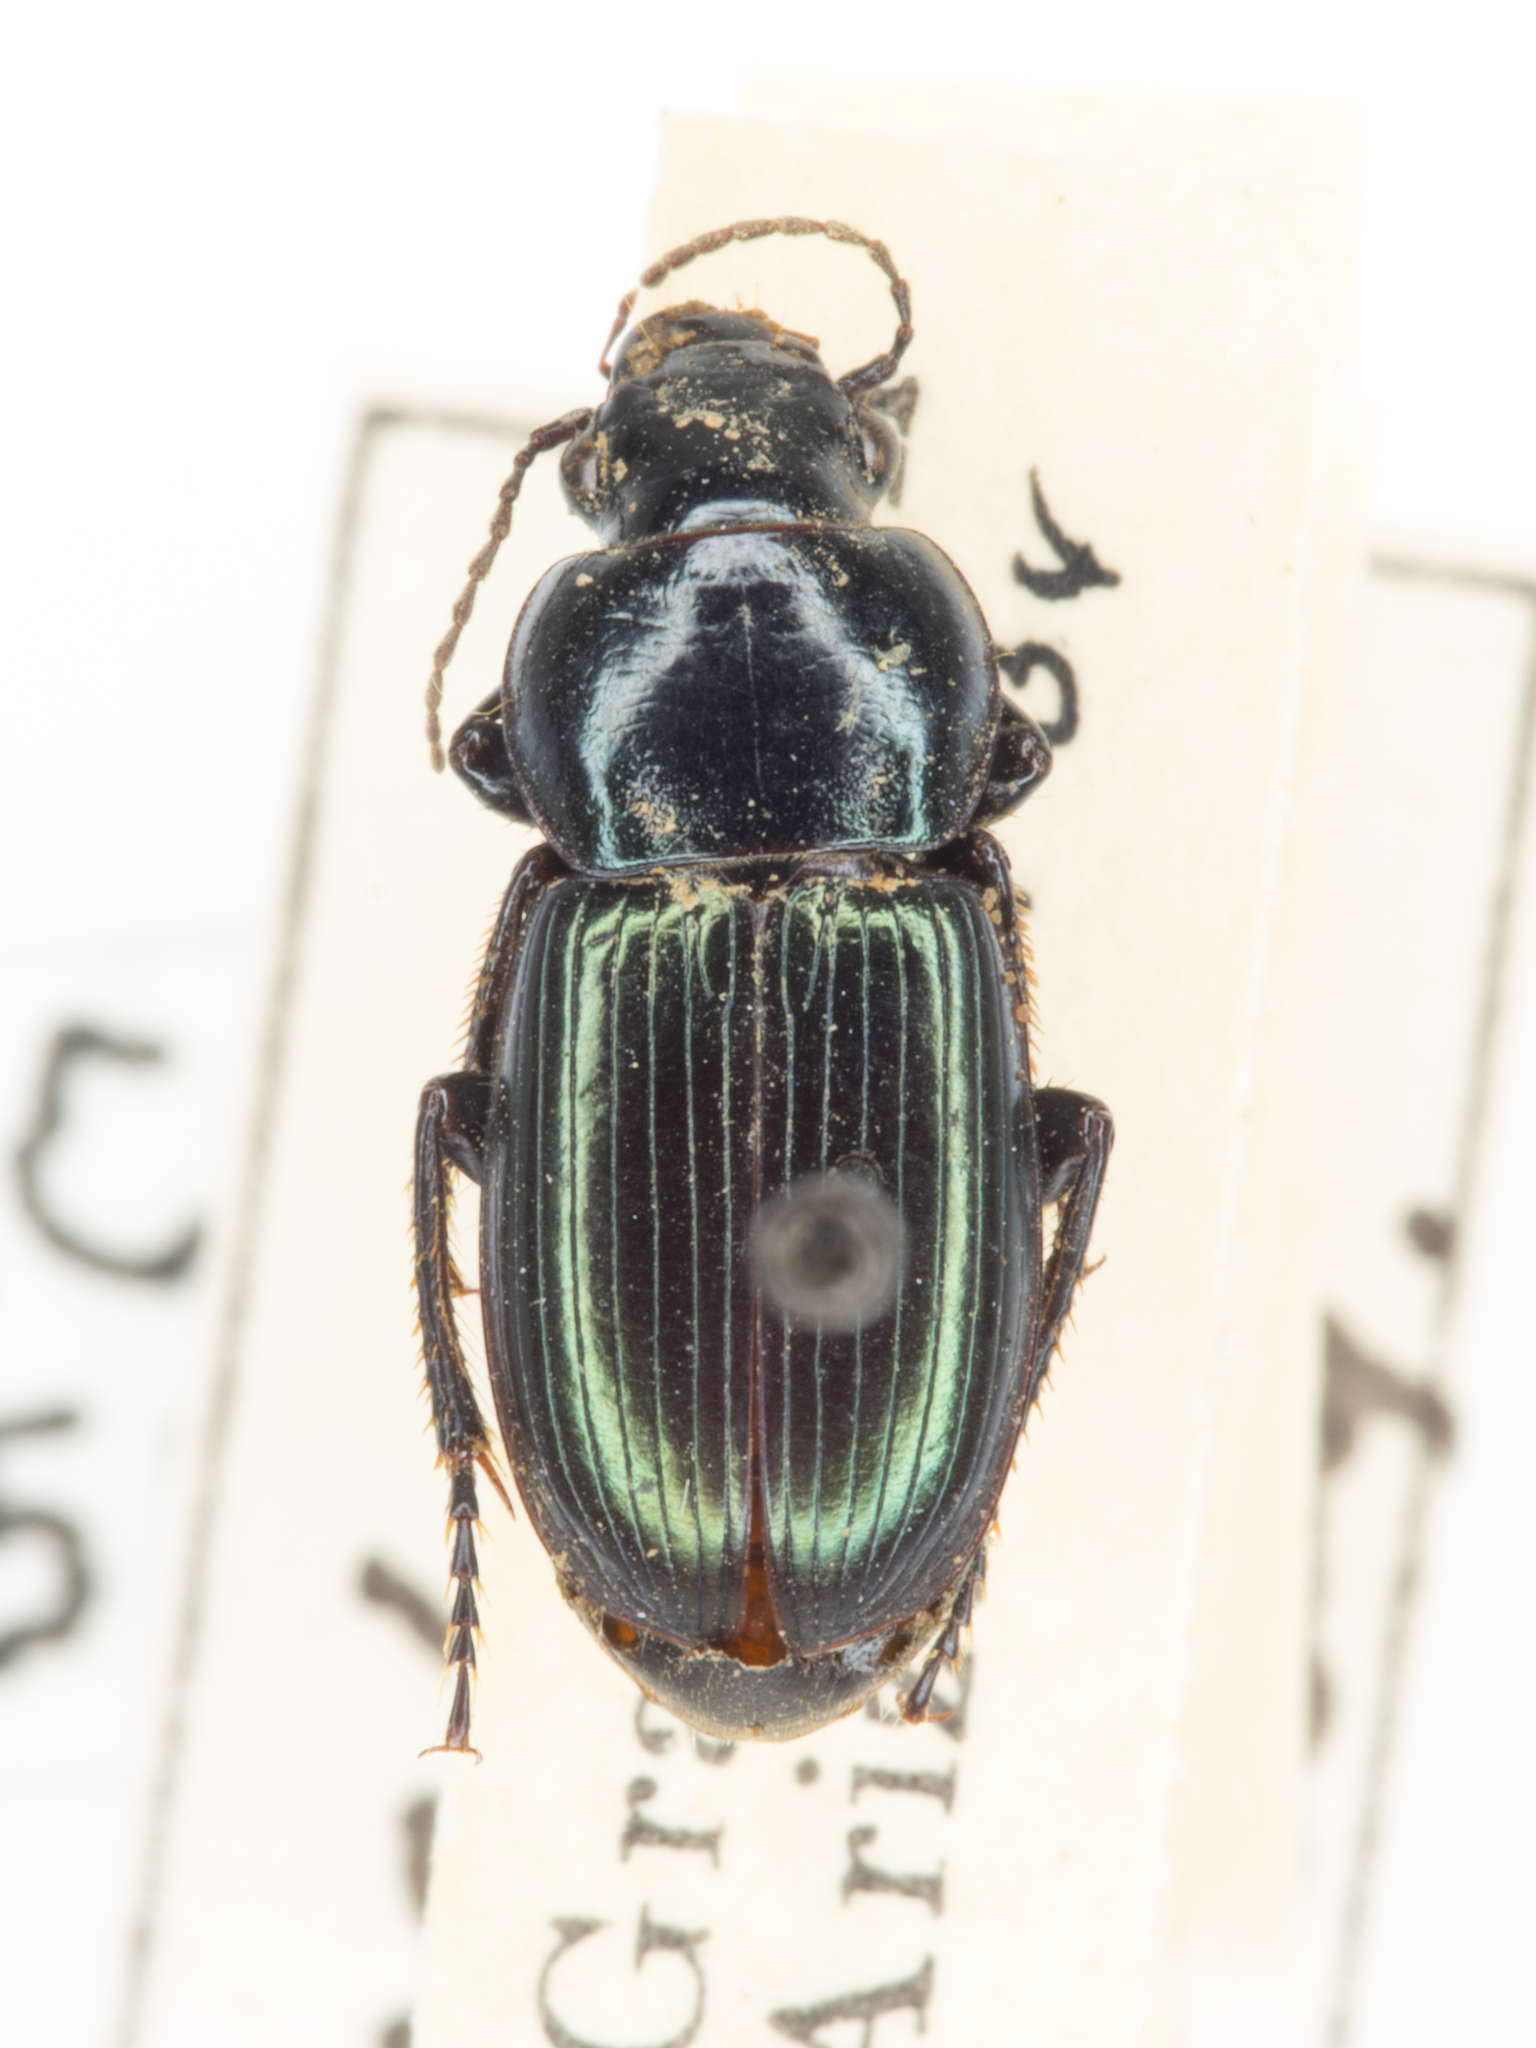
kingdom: Animalia
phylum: Arthropoda
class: Insecta
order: Coleoptera
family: Carabidae
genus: Harpalus
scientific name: Harpalus amputatus
